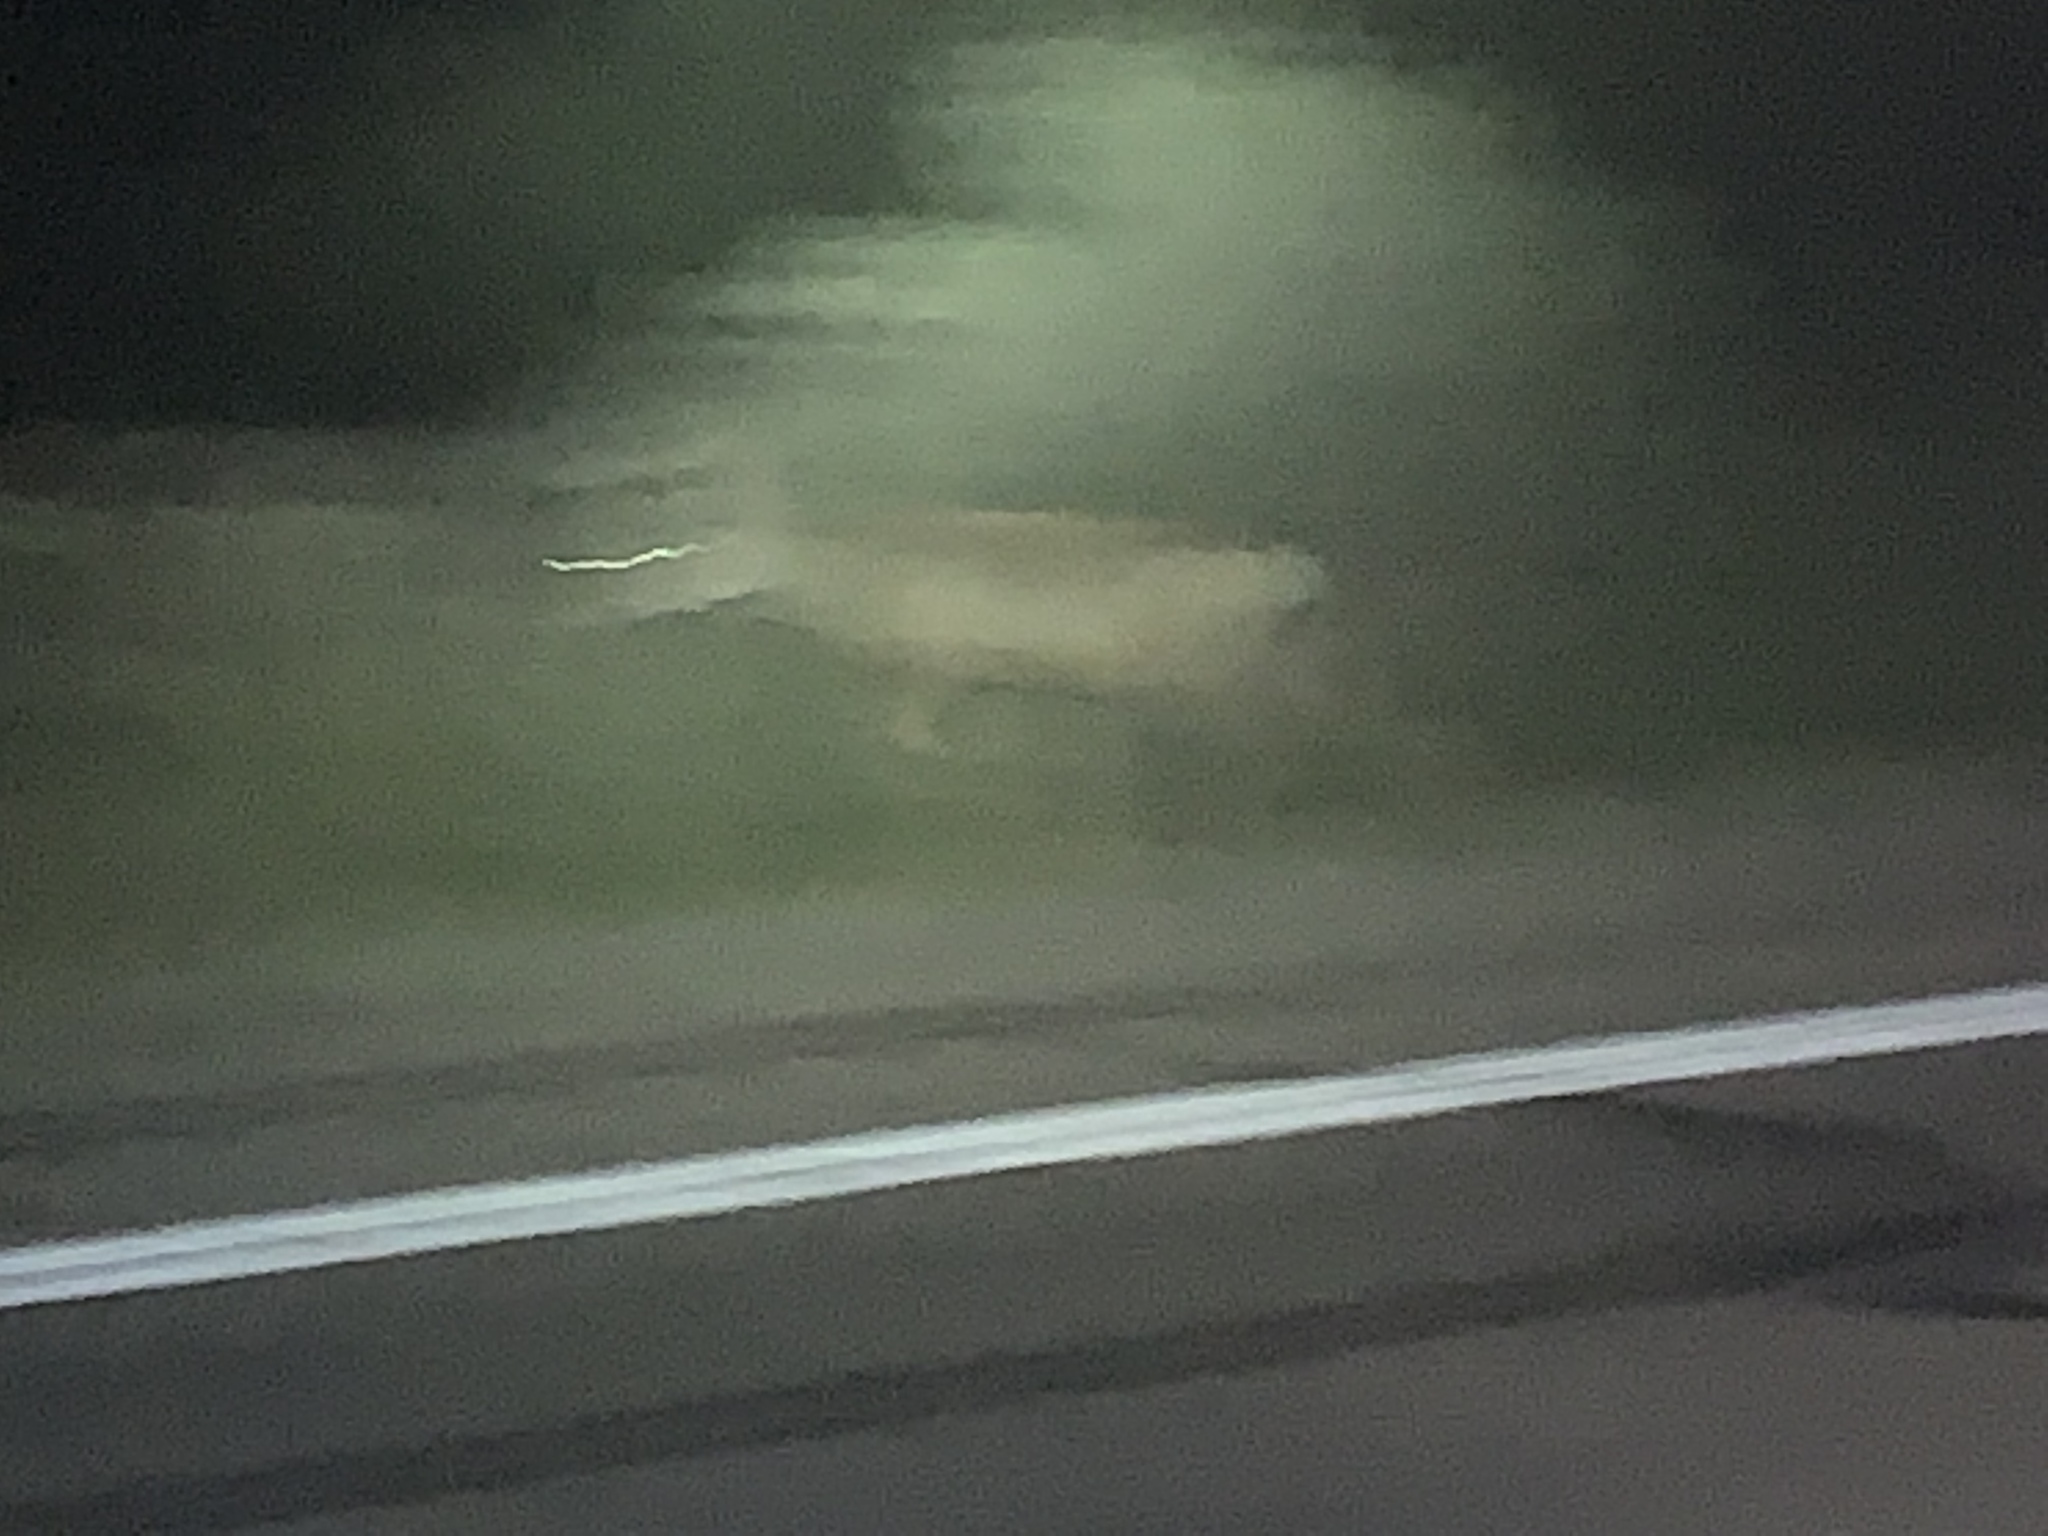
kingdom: Animalia
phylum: Chordata
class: Mammalia
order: Artiodactyla
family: Cervidae
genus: Odocoileus
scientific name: Odocoileus hemionus
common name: Mule deer
